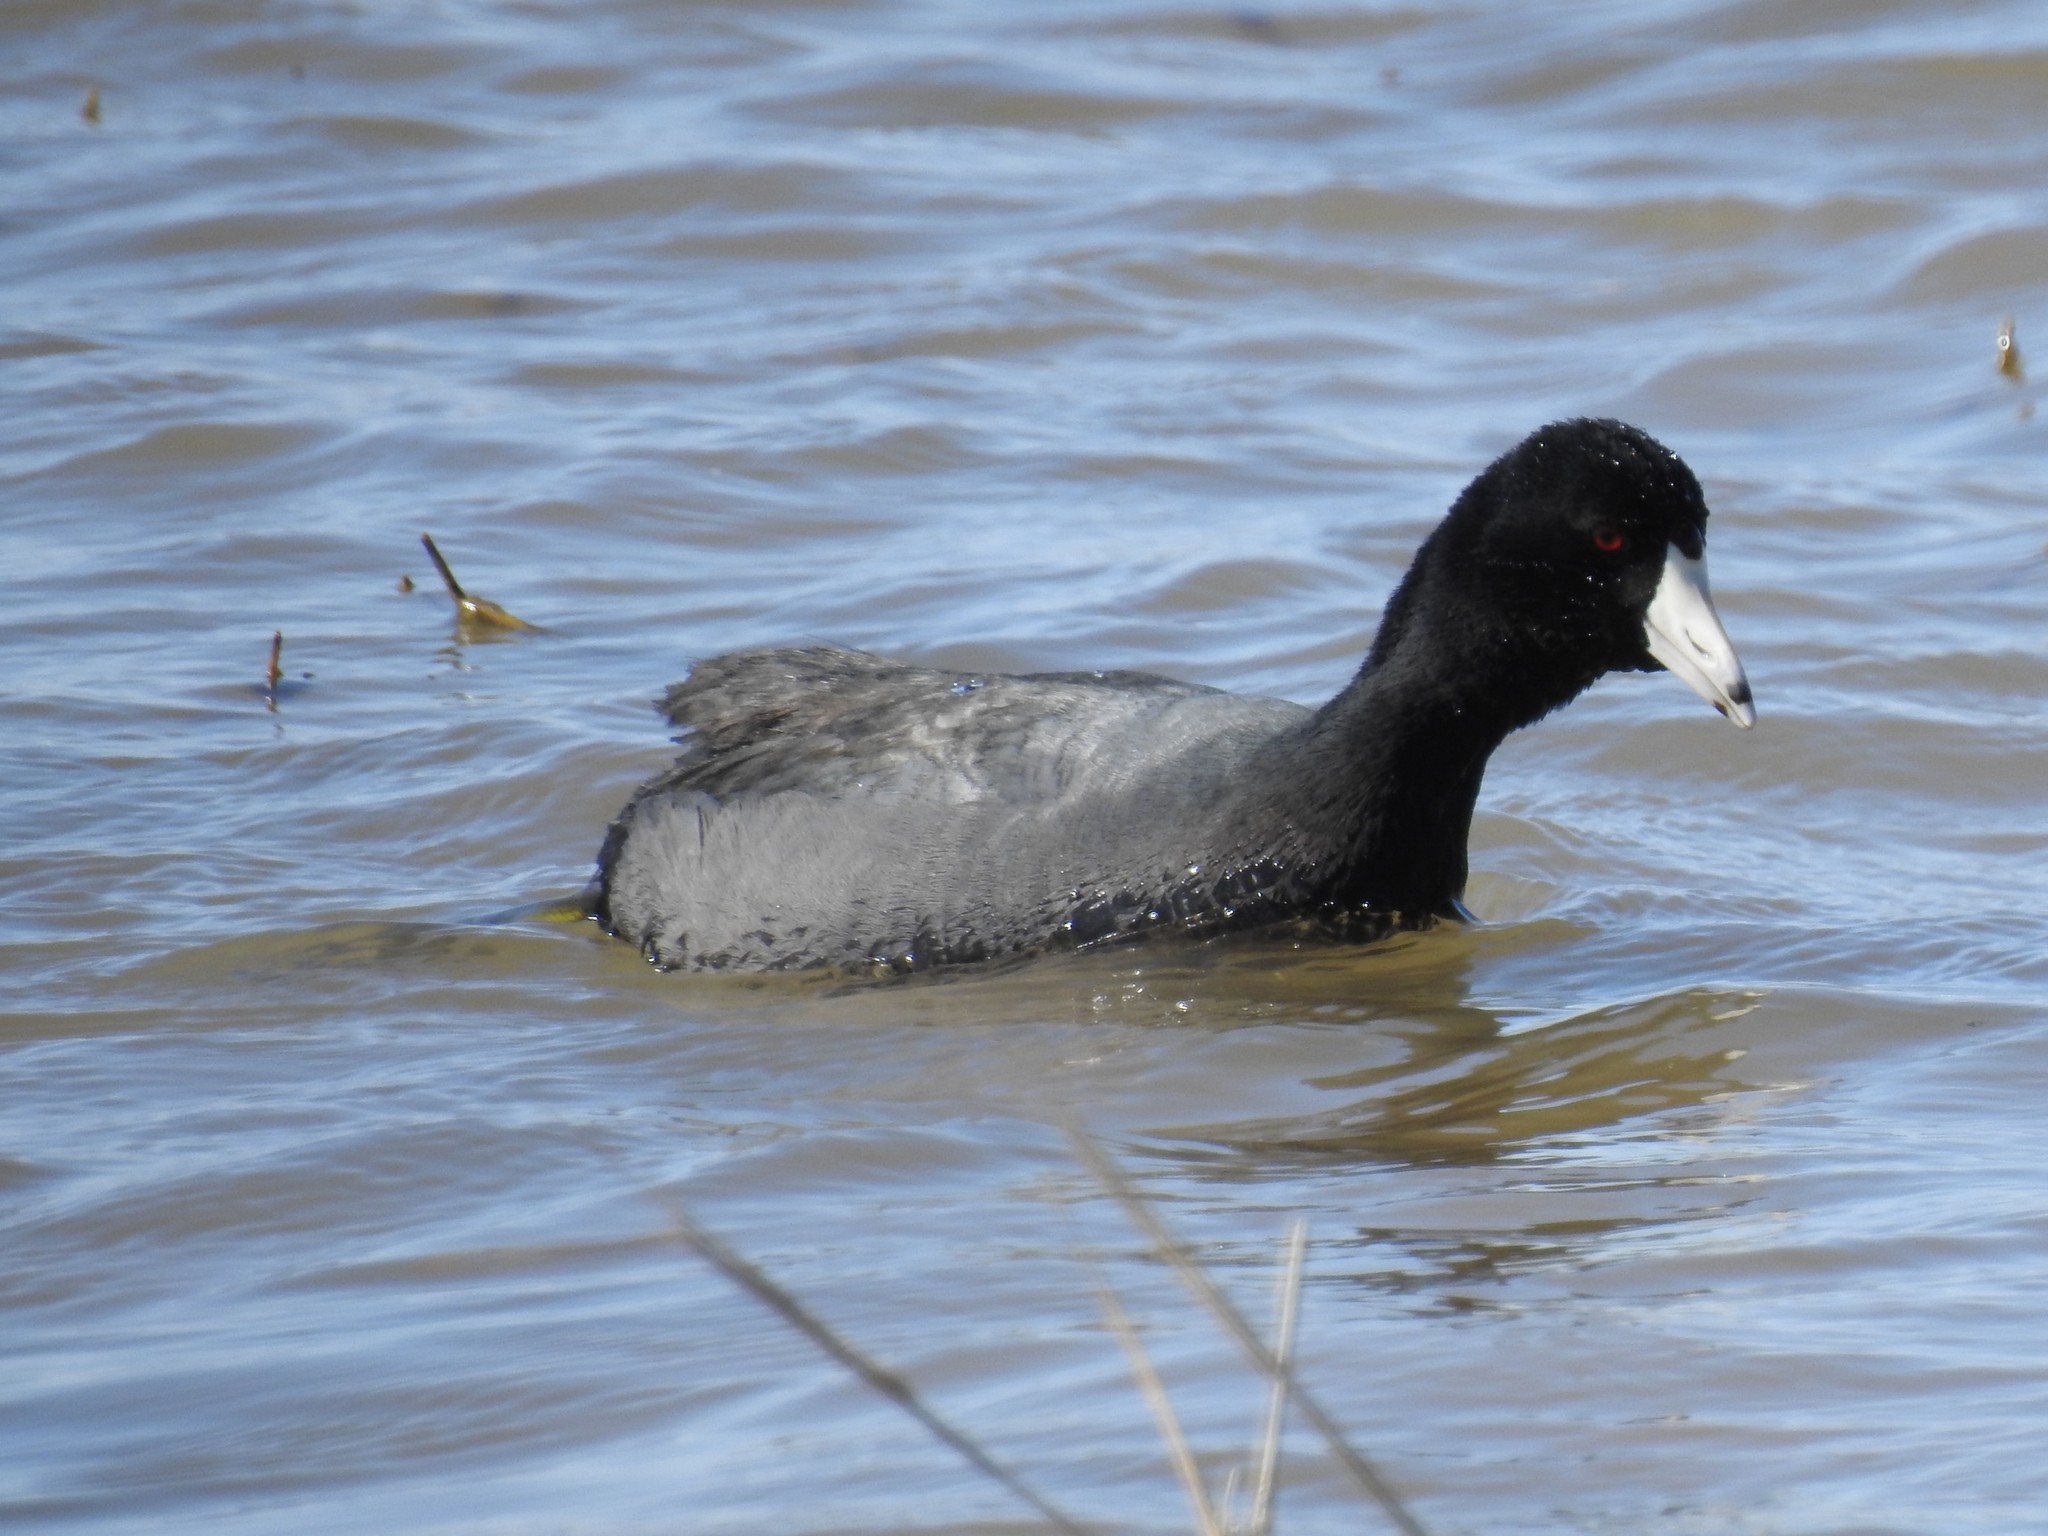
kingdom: Animalia
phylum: Chordata
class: Aves
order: Gruiformes
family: Rallidae
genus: Fulica
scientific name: Fulica americana
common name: American coot
